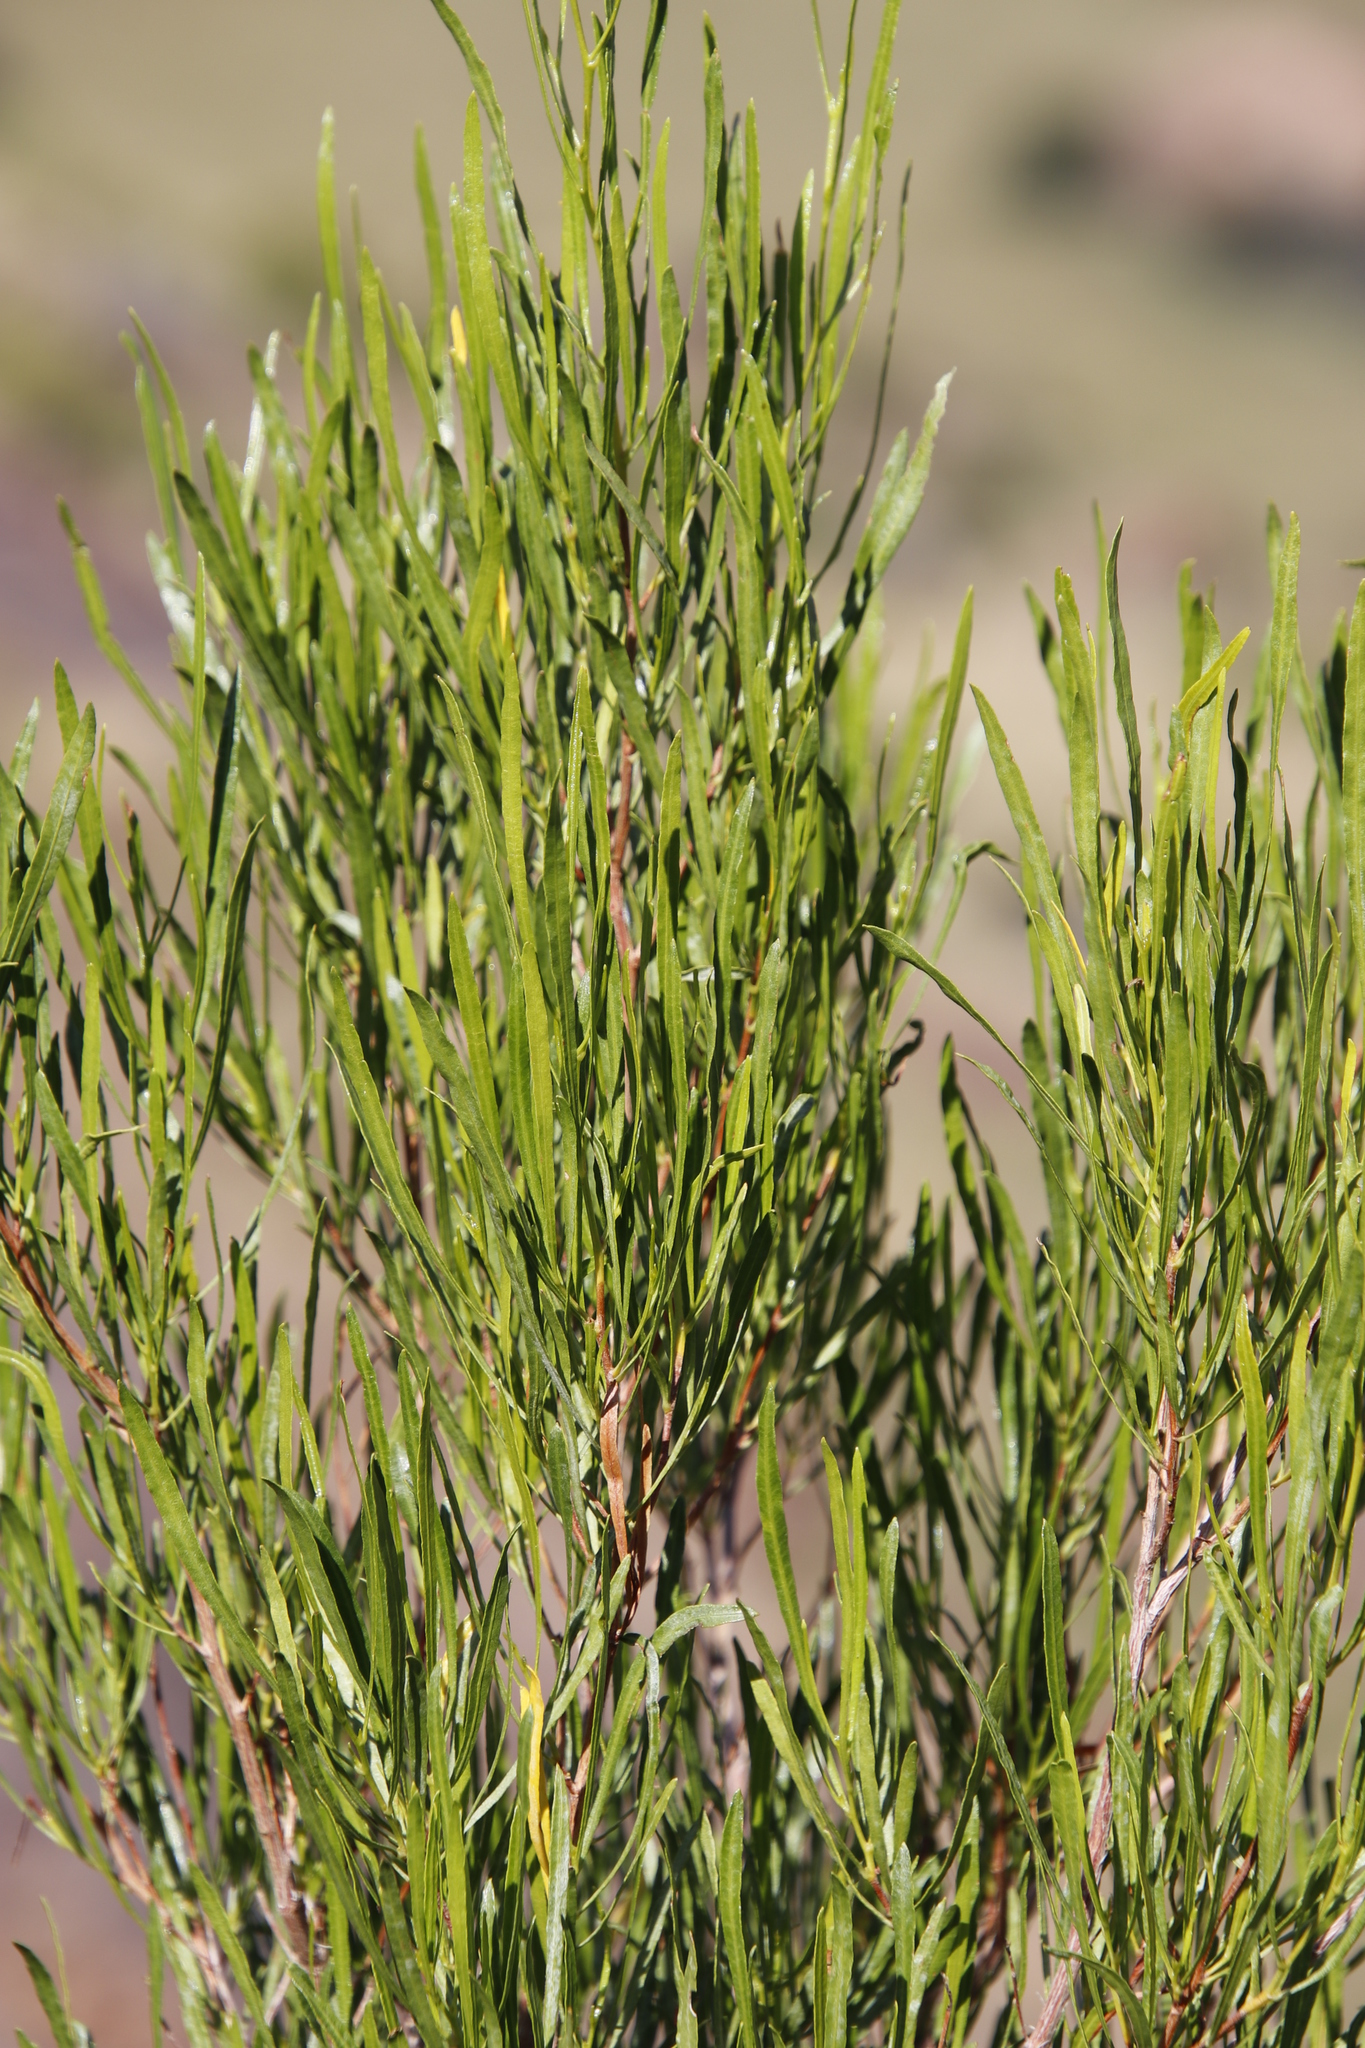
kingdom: Plantae
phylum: Tracheophyta
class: Magnoliopsida
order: Sapindales
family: Sapindaceae
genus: Dodonaea
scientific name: Dodonaea viscosa
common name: Hopbush
